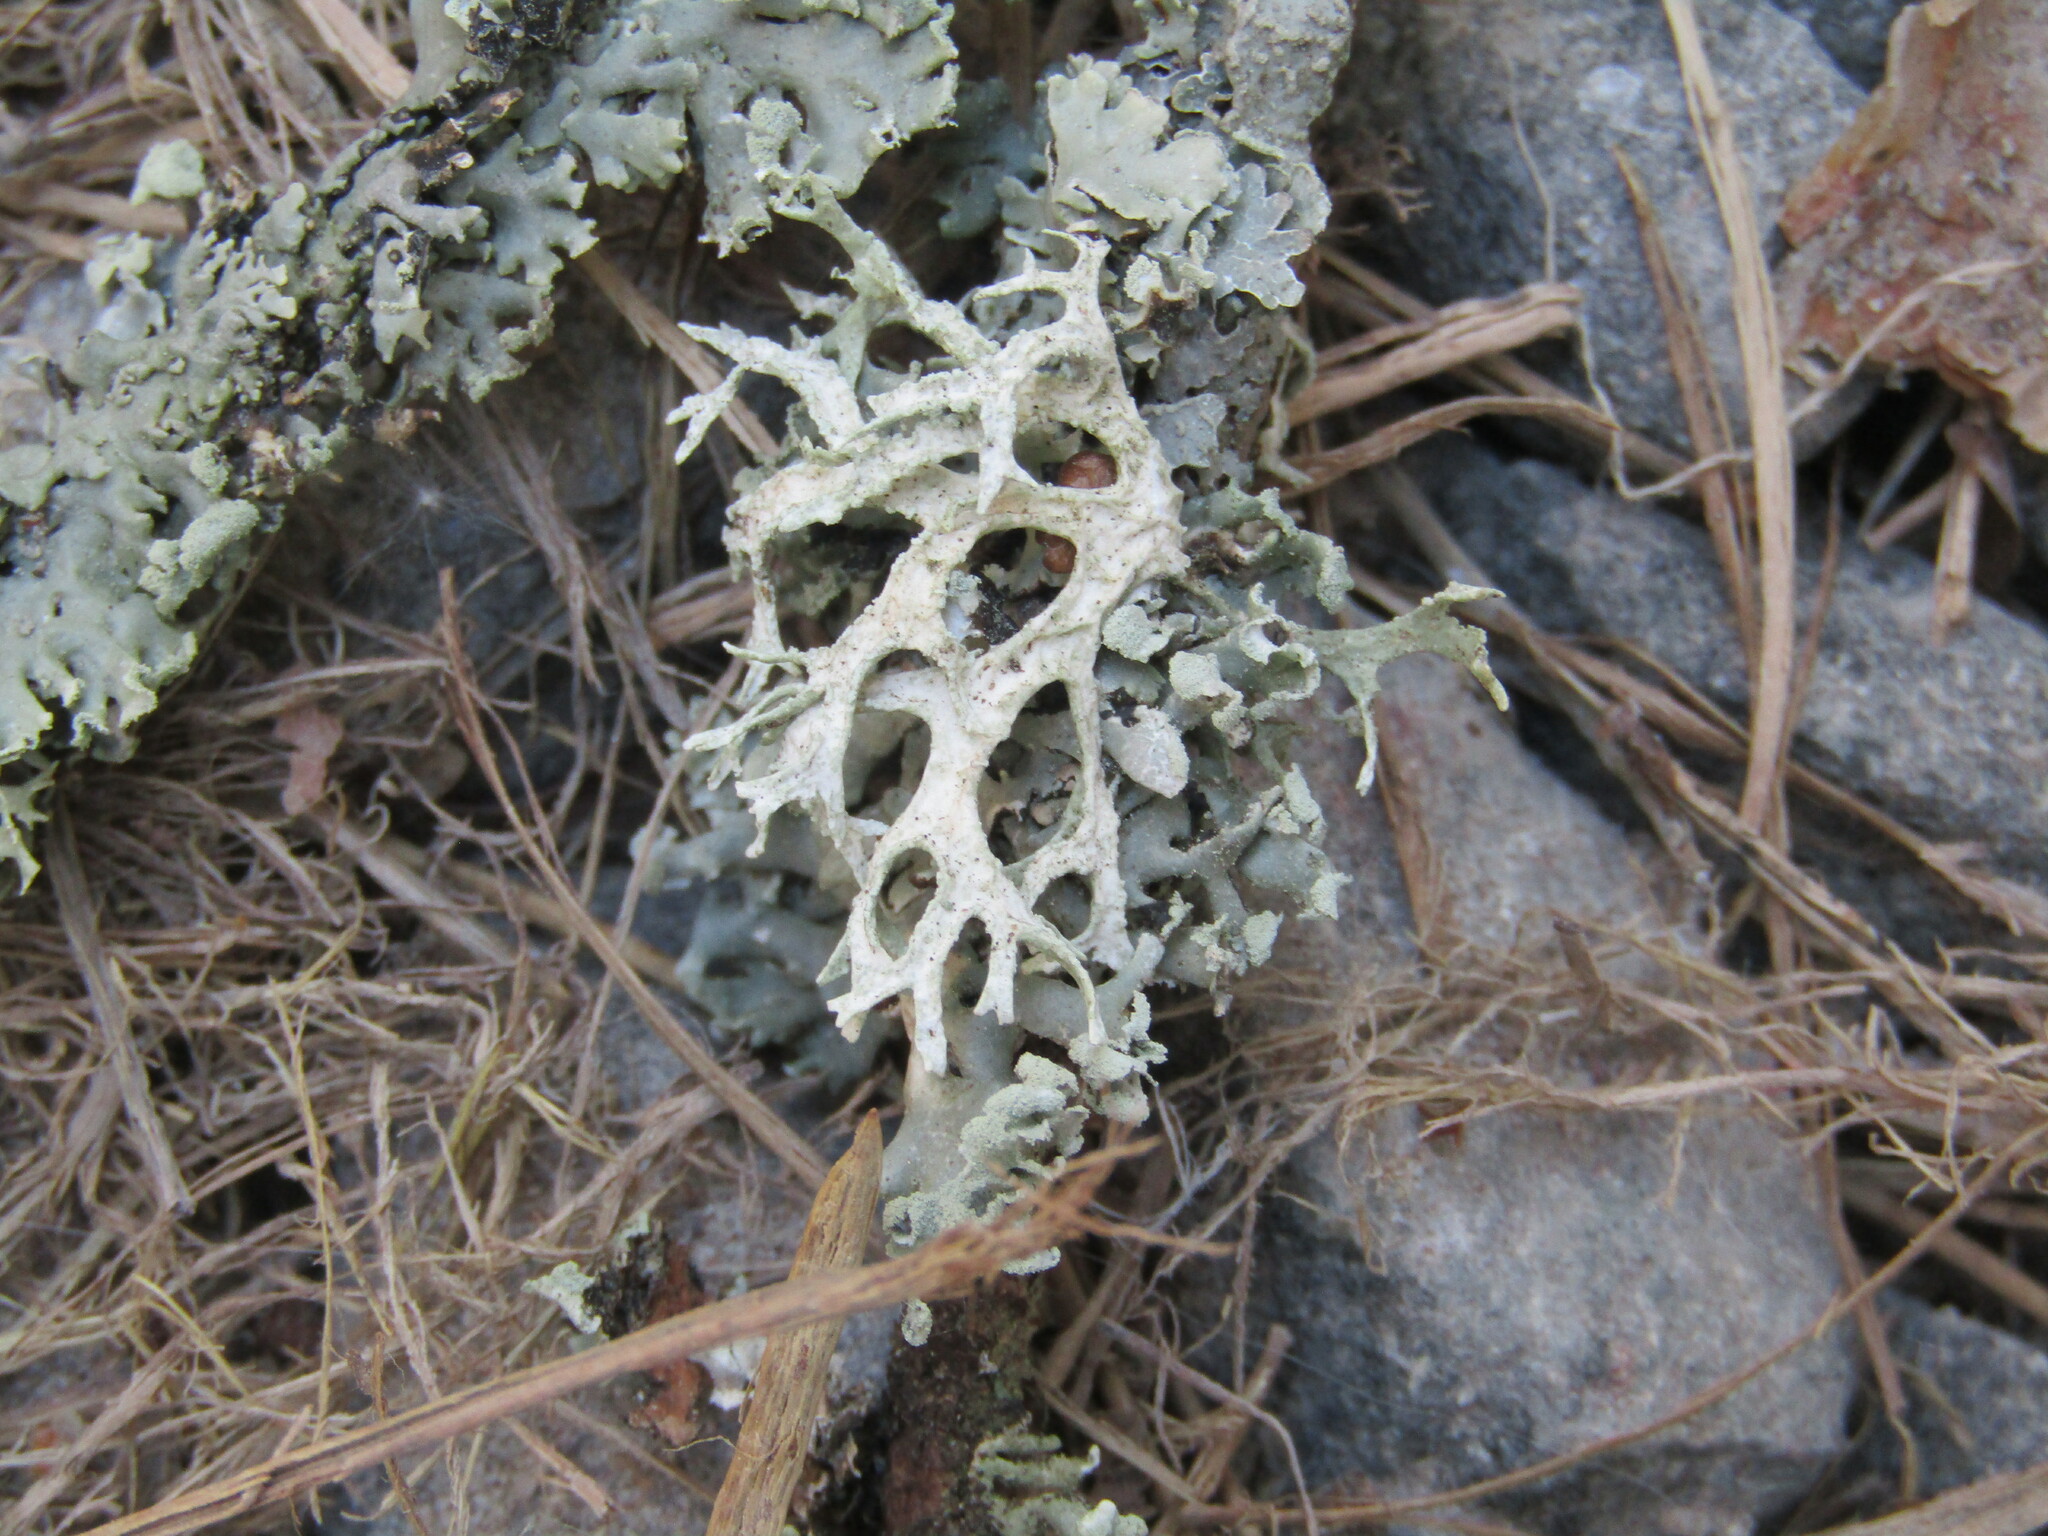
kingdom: Fungi
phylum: Ascomycota
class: Lecanoromycetes
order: Lecanorales
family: Parmeliaceae
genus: Evernia
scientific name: Evernia prunastri
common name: Oak moss
